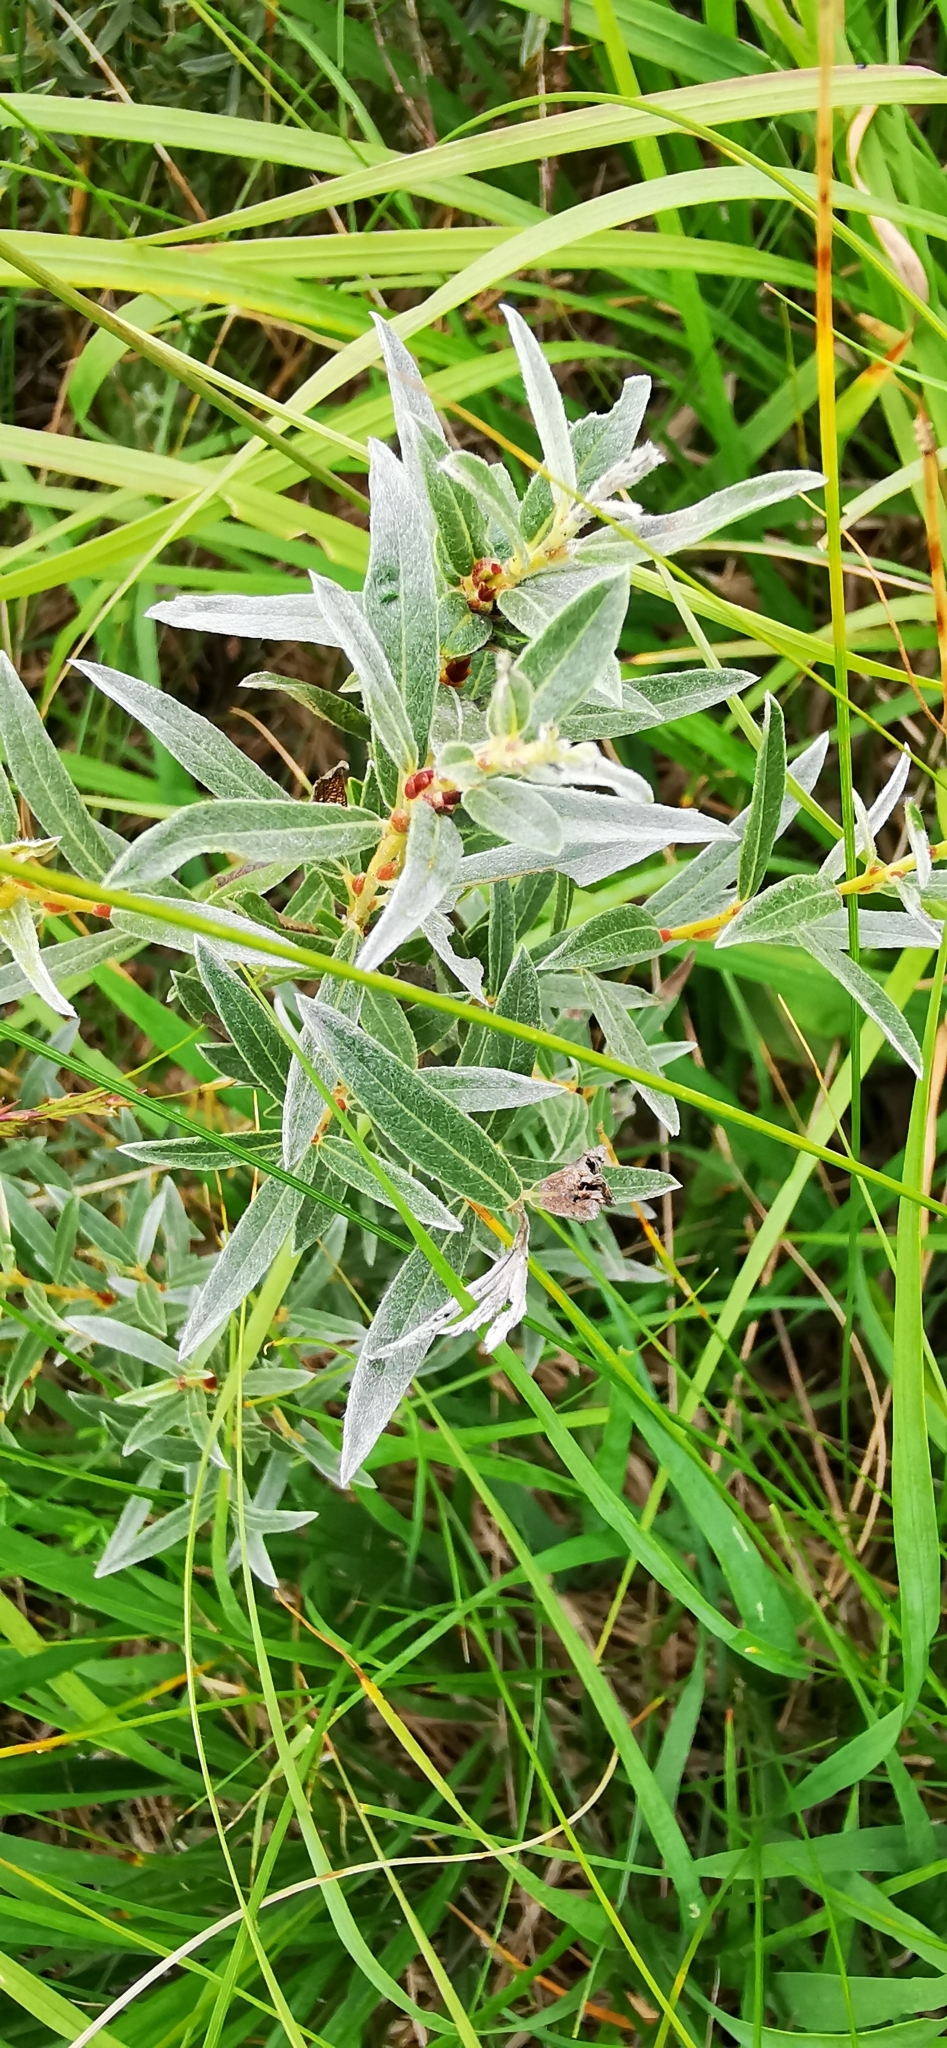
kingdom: Plantae
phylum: Tracheophyta
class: Magnoliopsida
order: Malpighiales
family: Salicaceae
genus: Salix
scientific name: Salix rosmarinifolia
